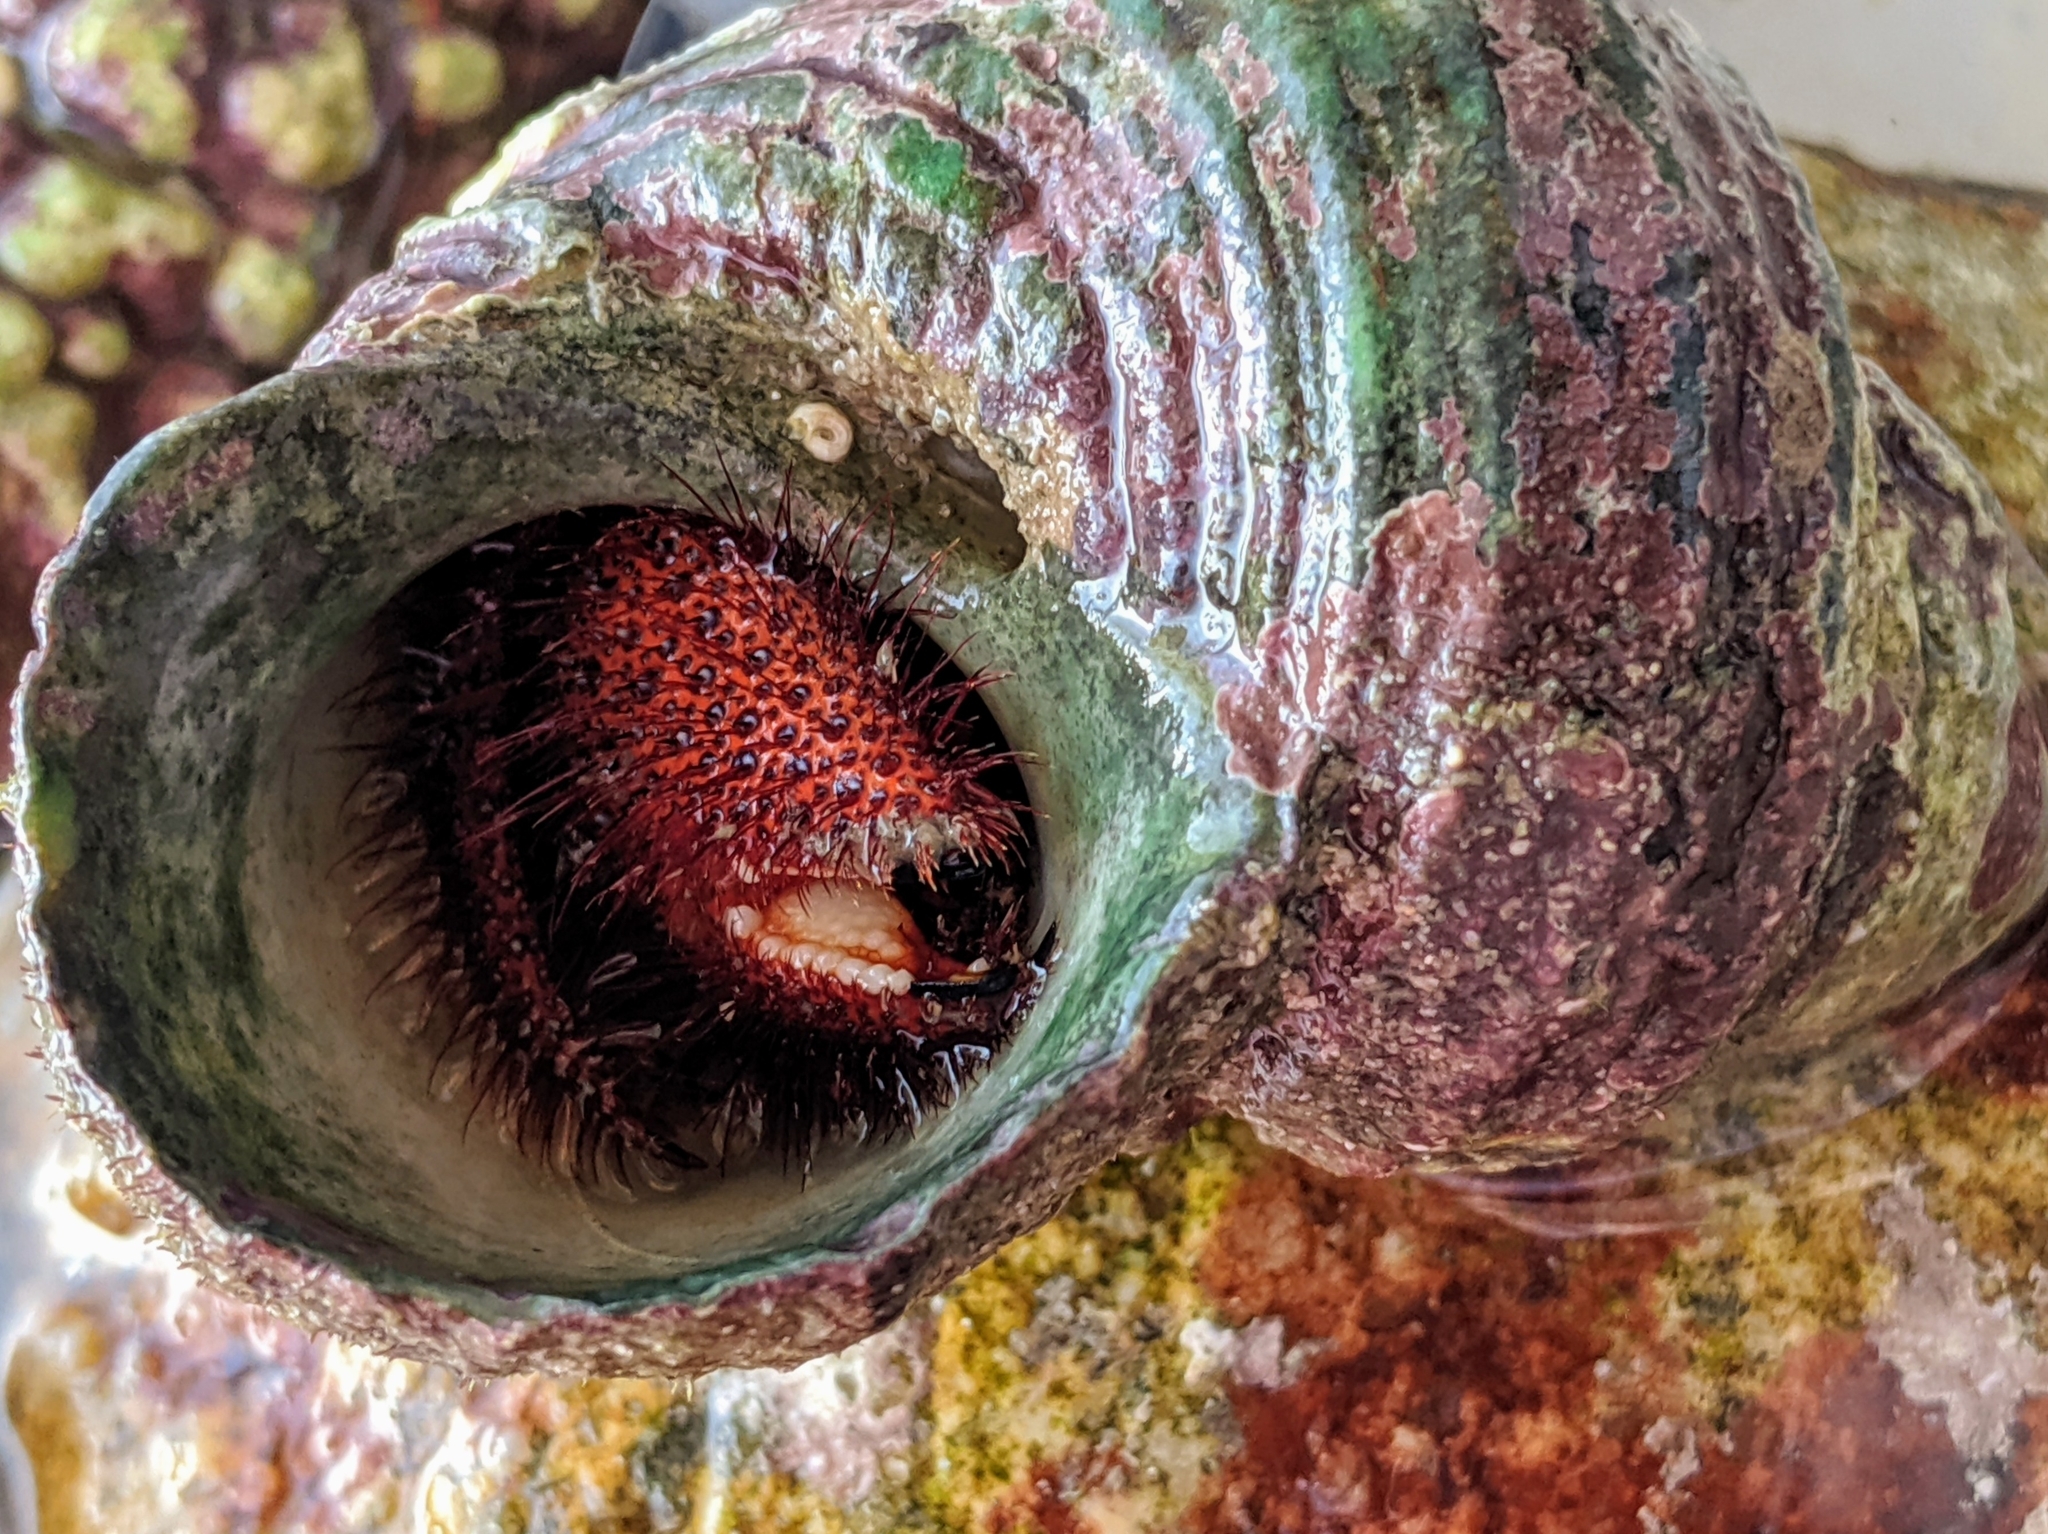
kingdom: Animalia
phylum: Arthropoda
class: Malacostraca
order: Decapoda
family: Diogenidae
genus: Dardanus
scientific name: Dardanus megistos
